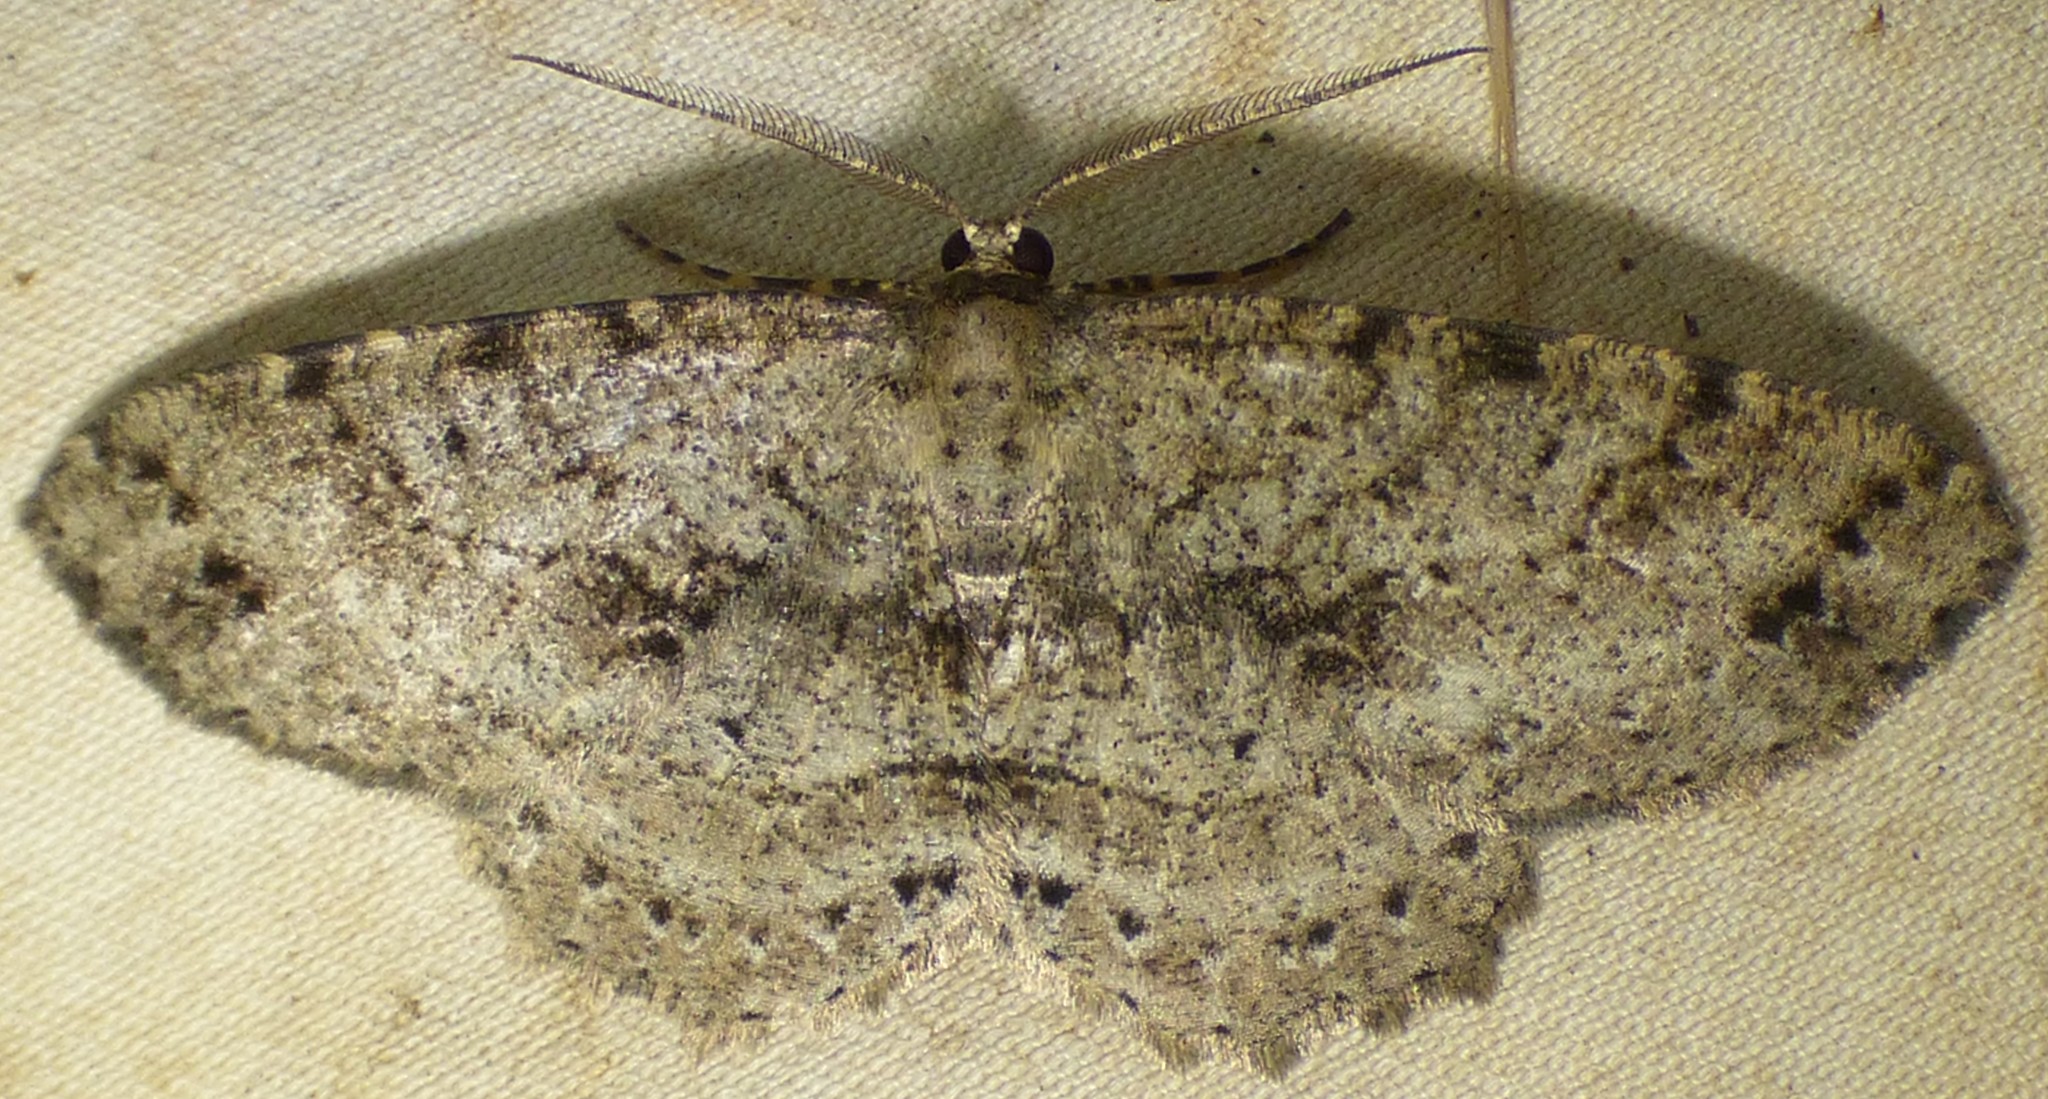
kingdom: Animalia
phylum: Arthropoda
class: Insecta
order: Lepidoptera
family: Geometridae
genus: Melanolophia
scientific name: Melanolophia canadaria
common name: Canadian melanolophia
